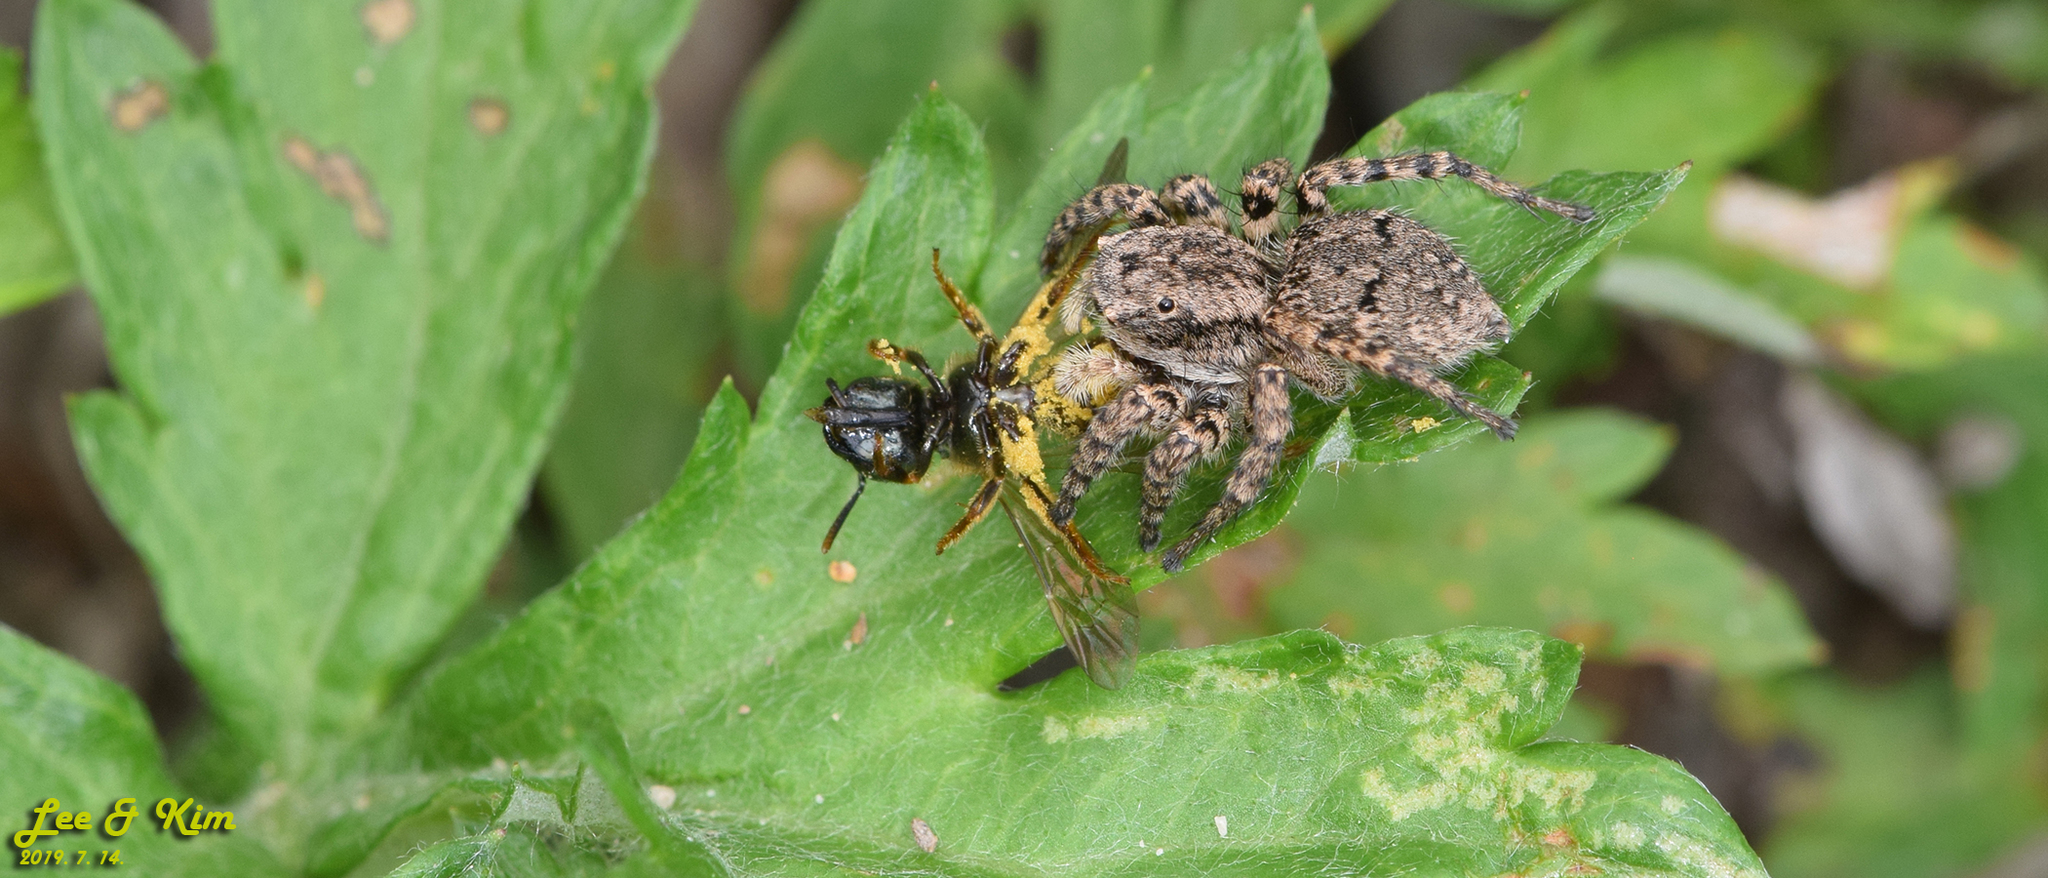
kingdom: Animalia
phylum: Arthropoda
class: Arachnida
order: Araneae
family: Salticidae
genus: Asianellus
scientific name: Asianellus festivus
